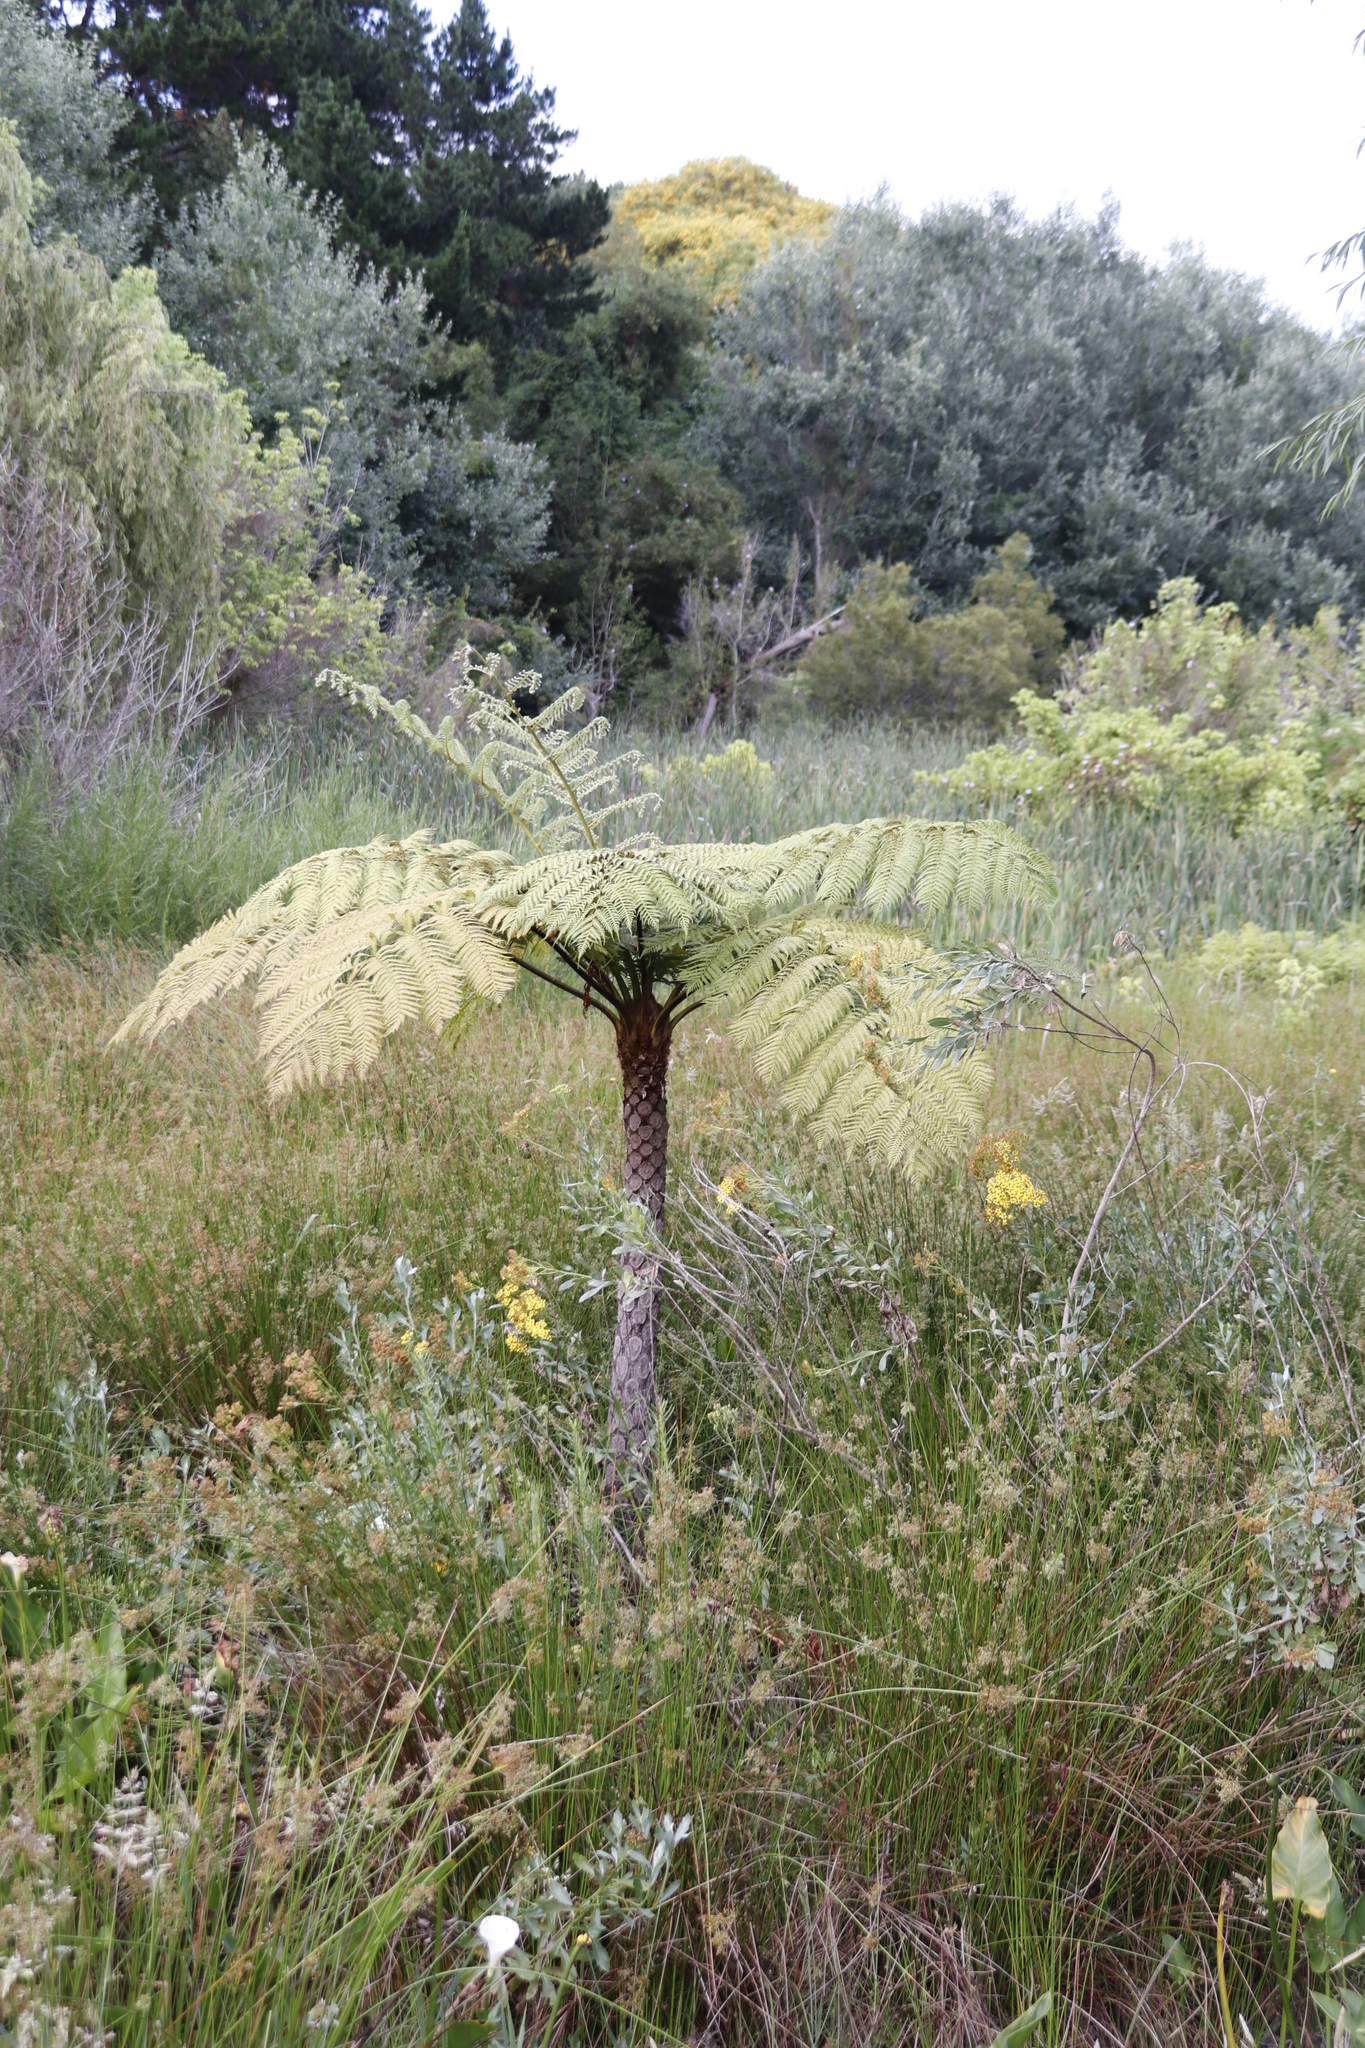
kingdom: Plantae
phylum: Tracheophyta
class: Polypodiopsida
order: Cyatheales
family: Cyatheaceae
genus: Sphaeropteris
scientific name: Sphaeropteris cooperi
